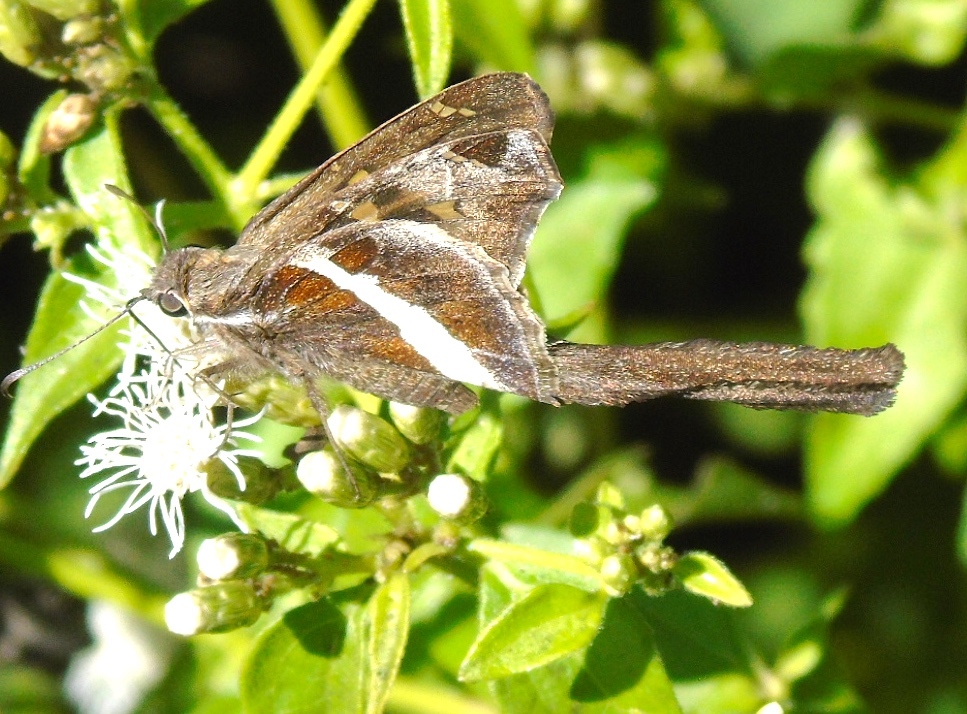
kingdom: Animalia
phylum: Arthropoda
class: Insecta
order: Lepidoptera
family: Hesperiidae
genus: Chioides
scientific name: Chioides catillus
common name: Silverbanded skipper
